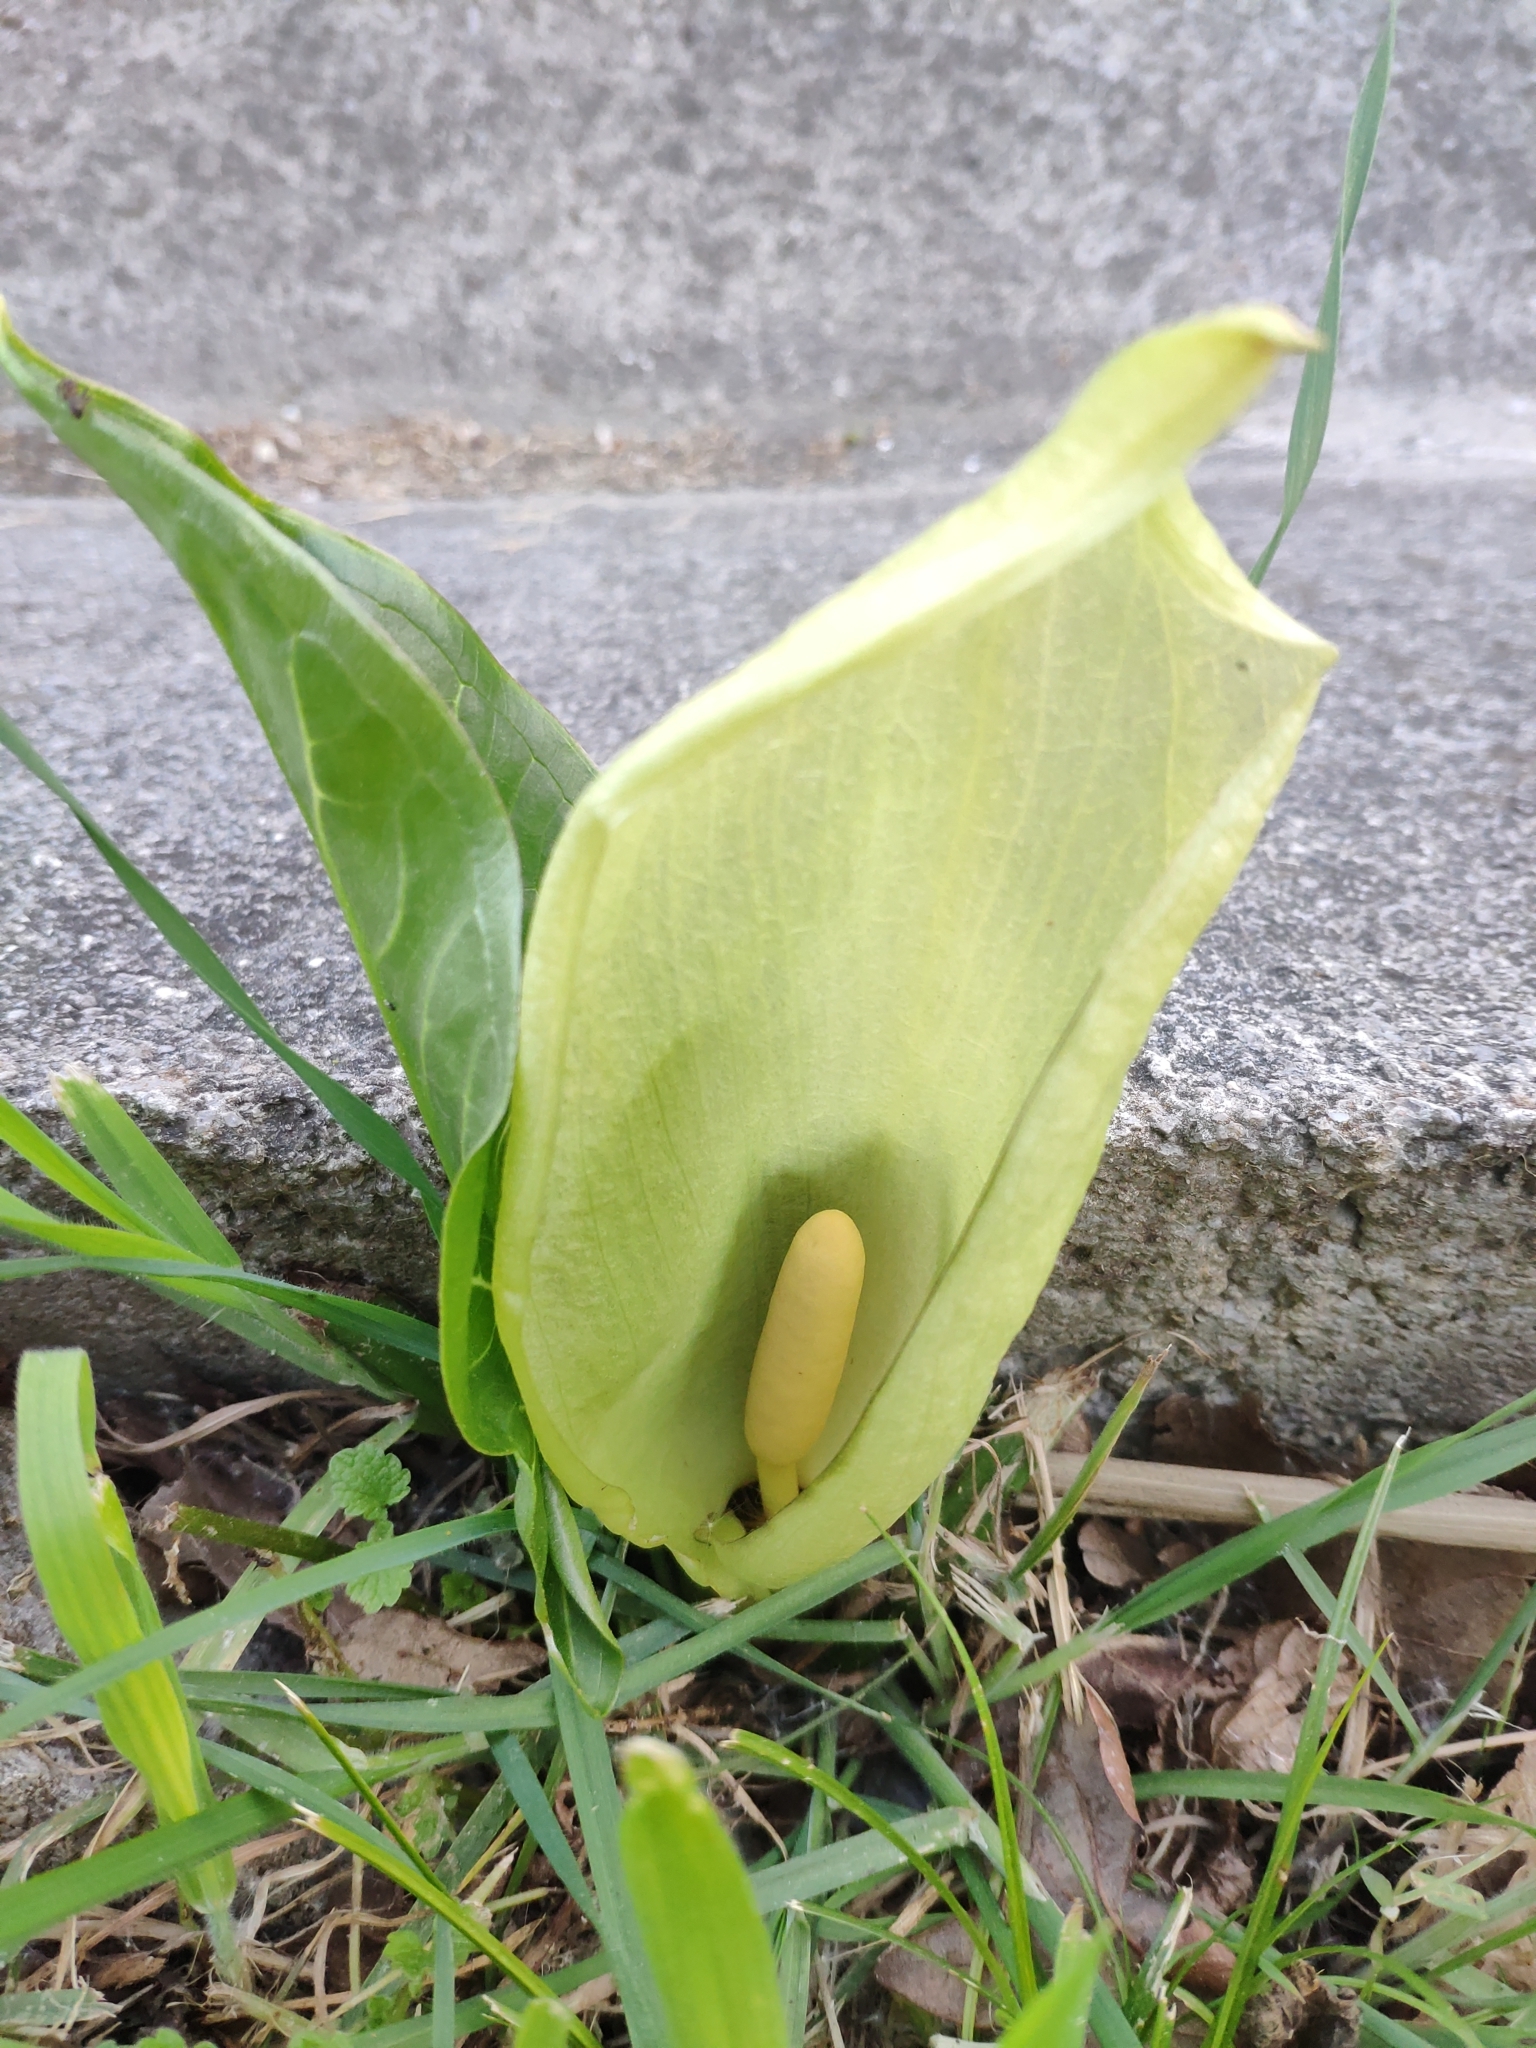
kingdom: Plantae
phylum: Tracheophyta
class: Liliopsida
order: Alismatales
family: Araceae
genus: Arum
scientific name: Arum italicum
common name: Italian lords-and-ladies
